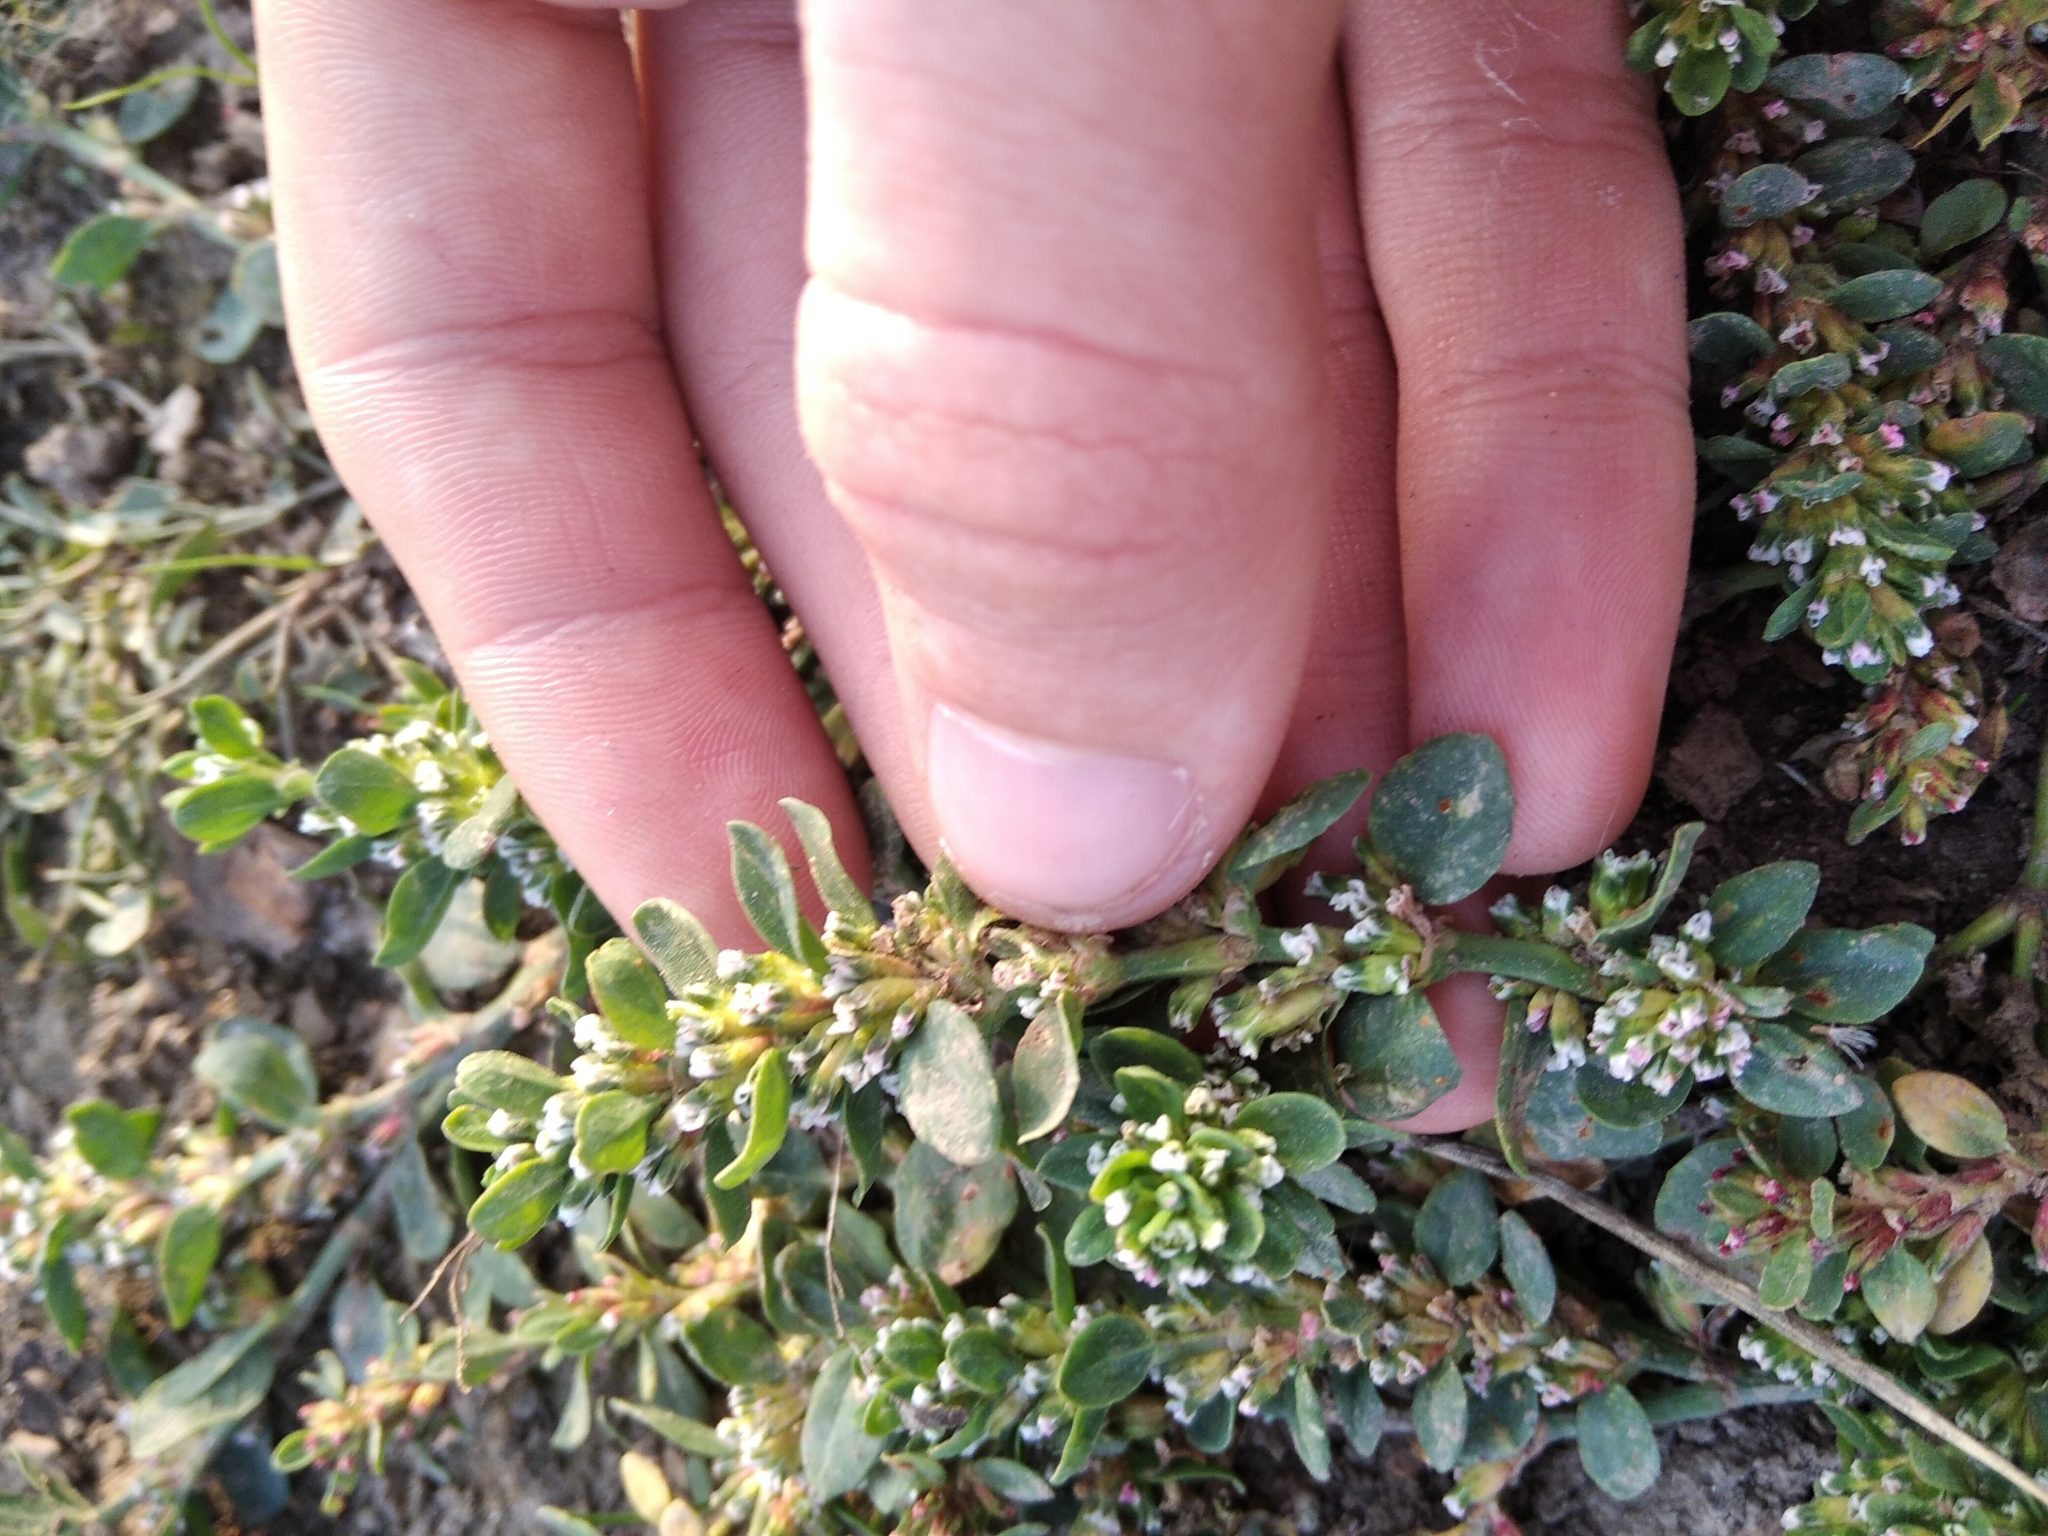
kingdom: Plantae
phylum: Tracheophyta
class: Magnoliopsida
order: Caryophyllales
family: Polygonaceae
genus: Polygonum
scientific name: Polygonum
